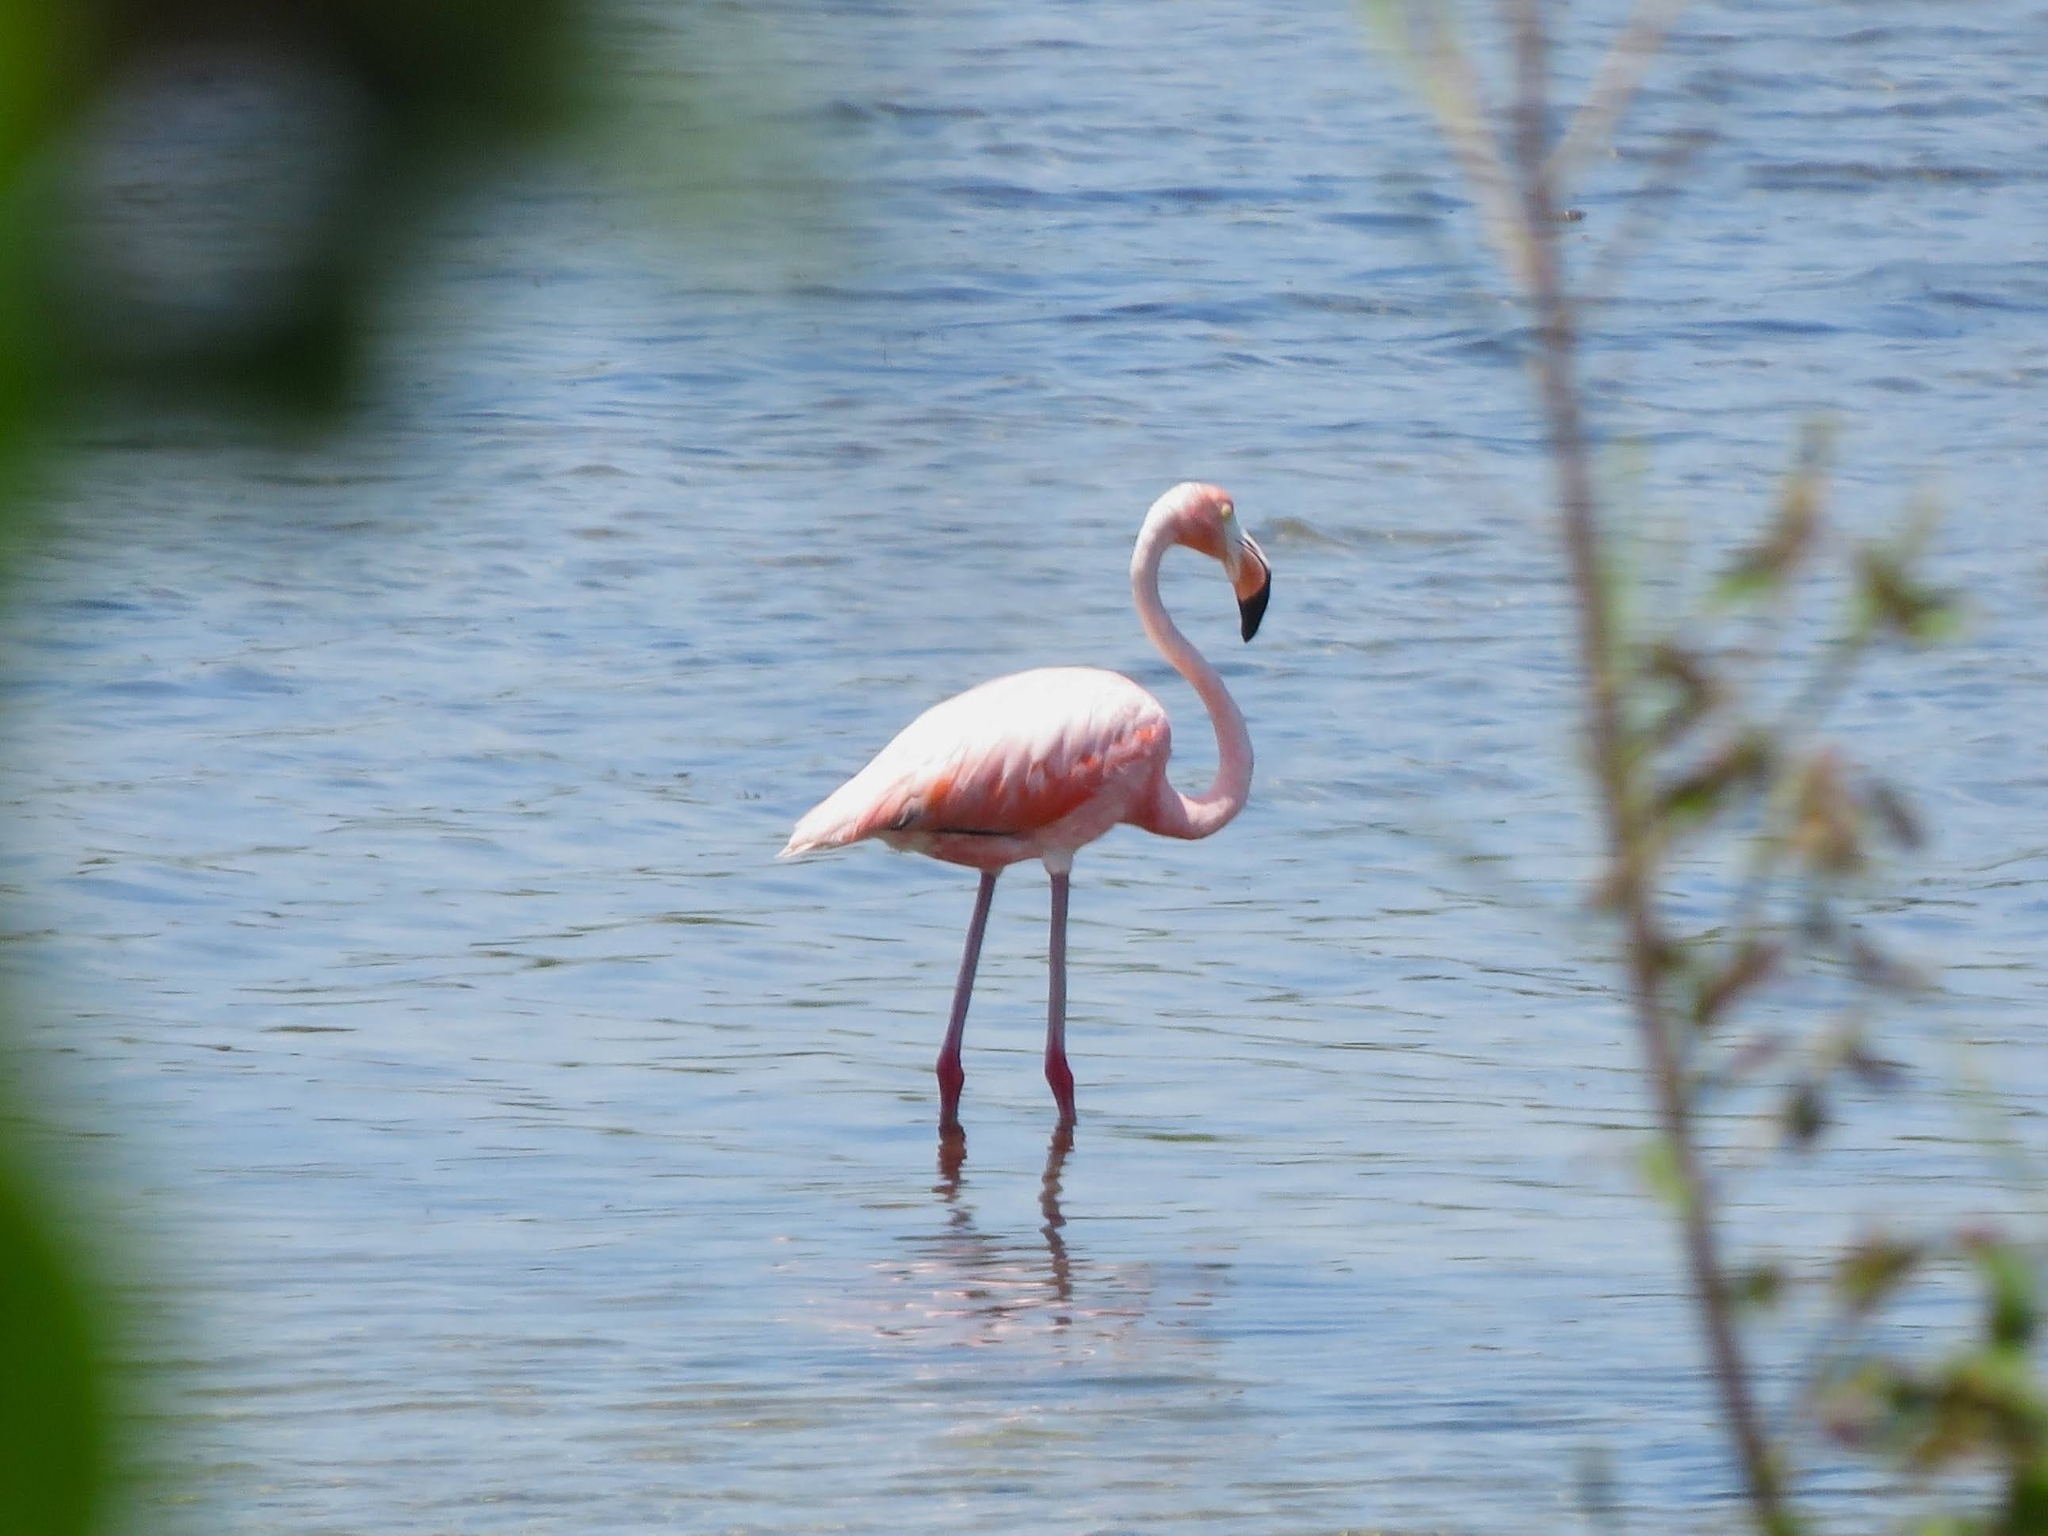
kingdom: Animalia
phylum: Chordata
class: Aves
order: Phoenicopteriformes
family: Phoenicopteridae
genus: Phoenicopterus
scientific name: Phoenicopterus ruber
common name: American flamingo
